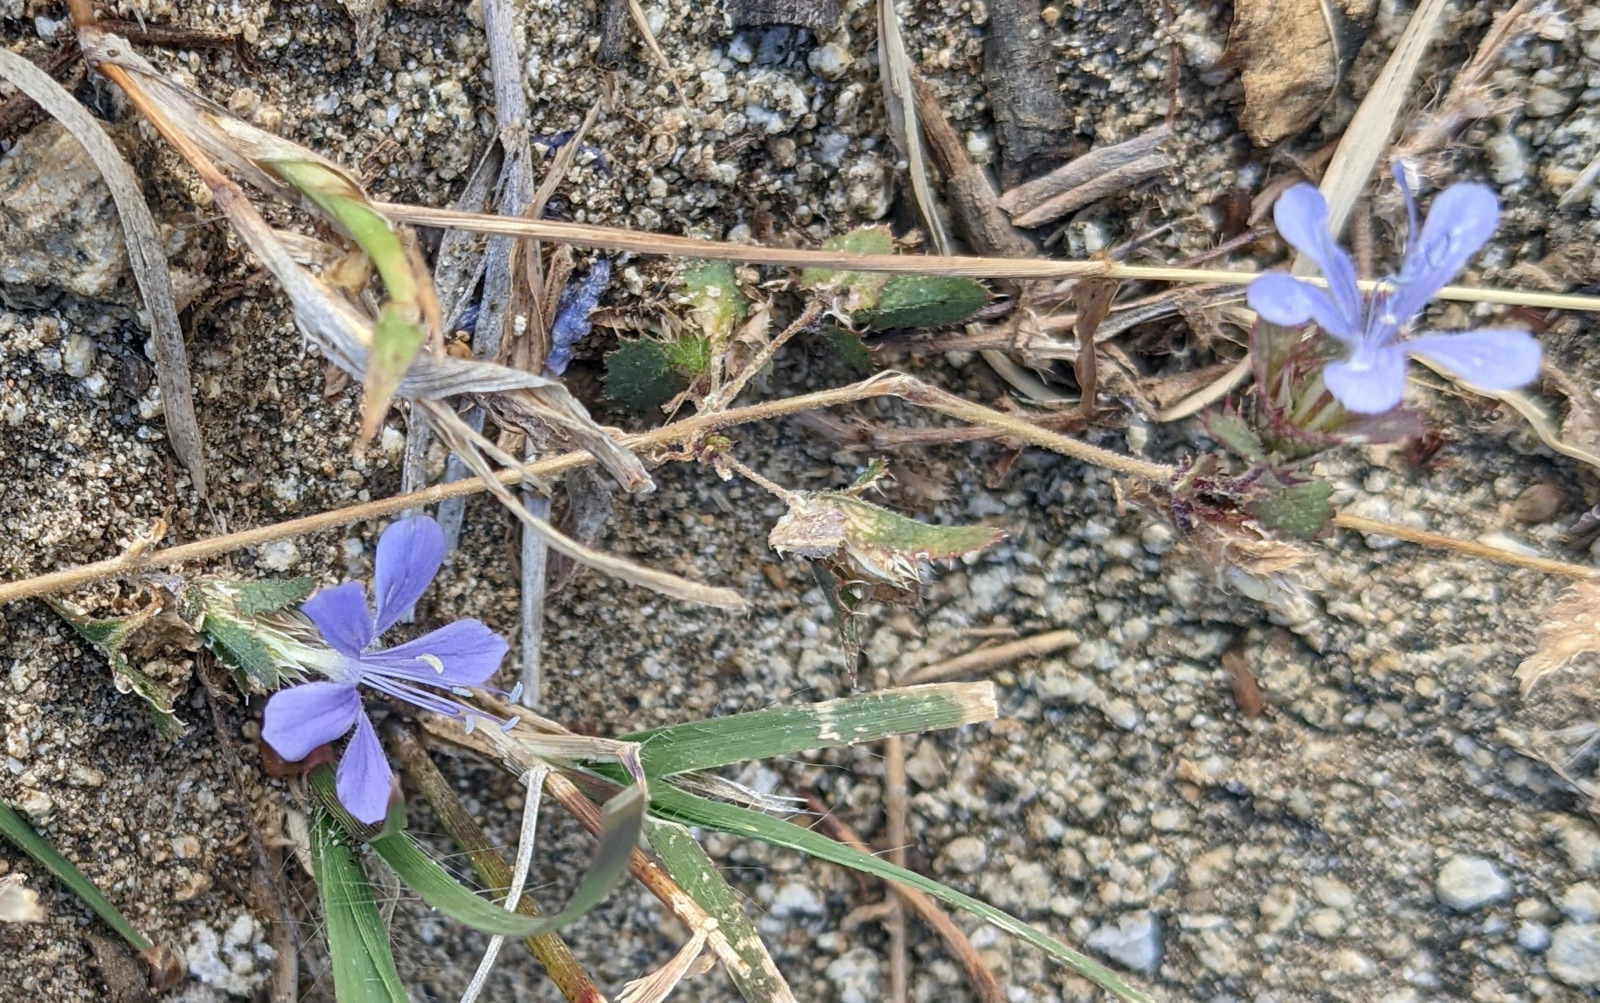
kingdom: Plantae
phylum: Tracheophyta
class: Magnoliopsida
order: Ericales
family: Polemoniaceae
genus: Loeselia
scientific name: Loeselia ciliata
